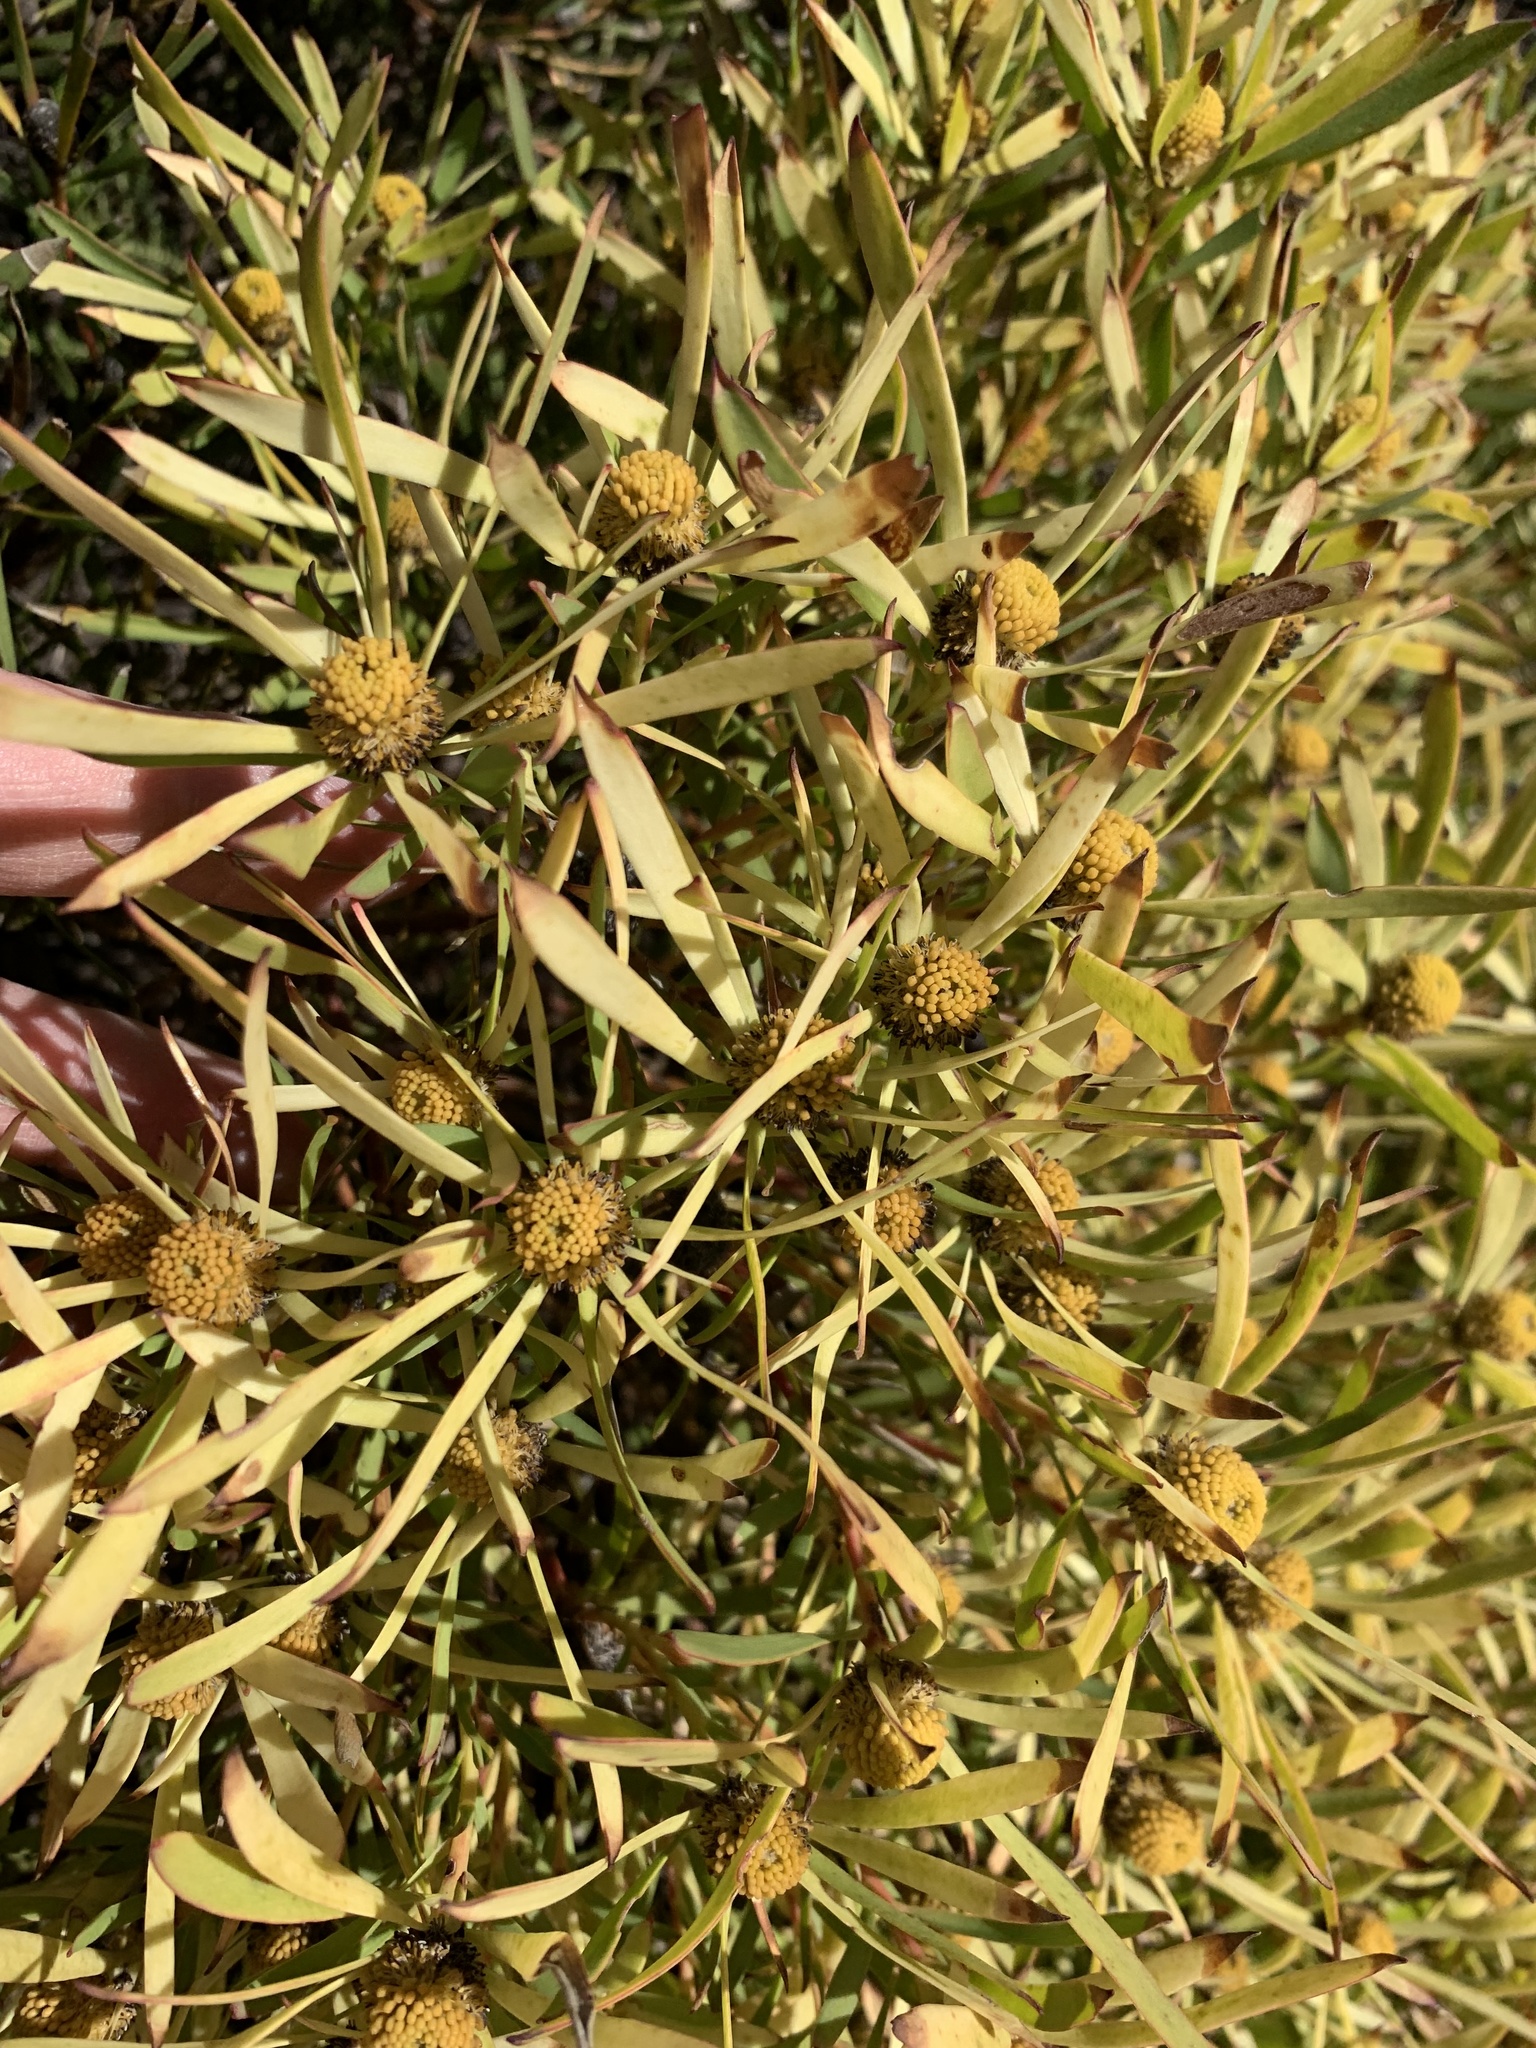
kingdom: Plantae
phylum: Tracheophyta
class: Magnoliopsida
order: Proteales
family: Proteaceae
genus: Leucadendron
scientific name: Leucadendron salignum
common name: Common sunshine conebush
